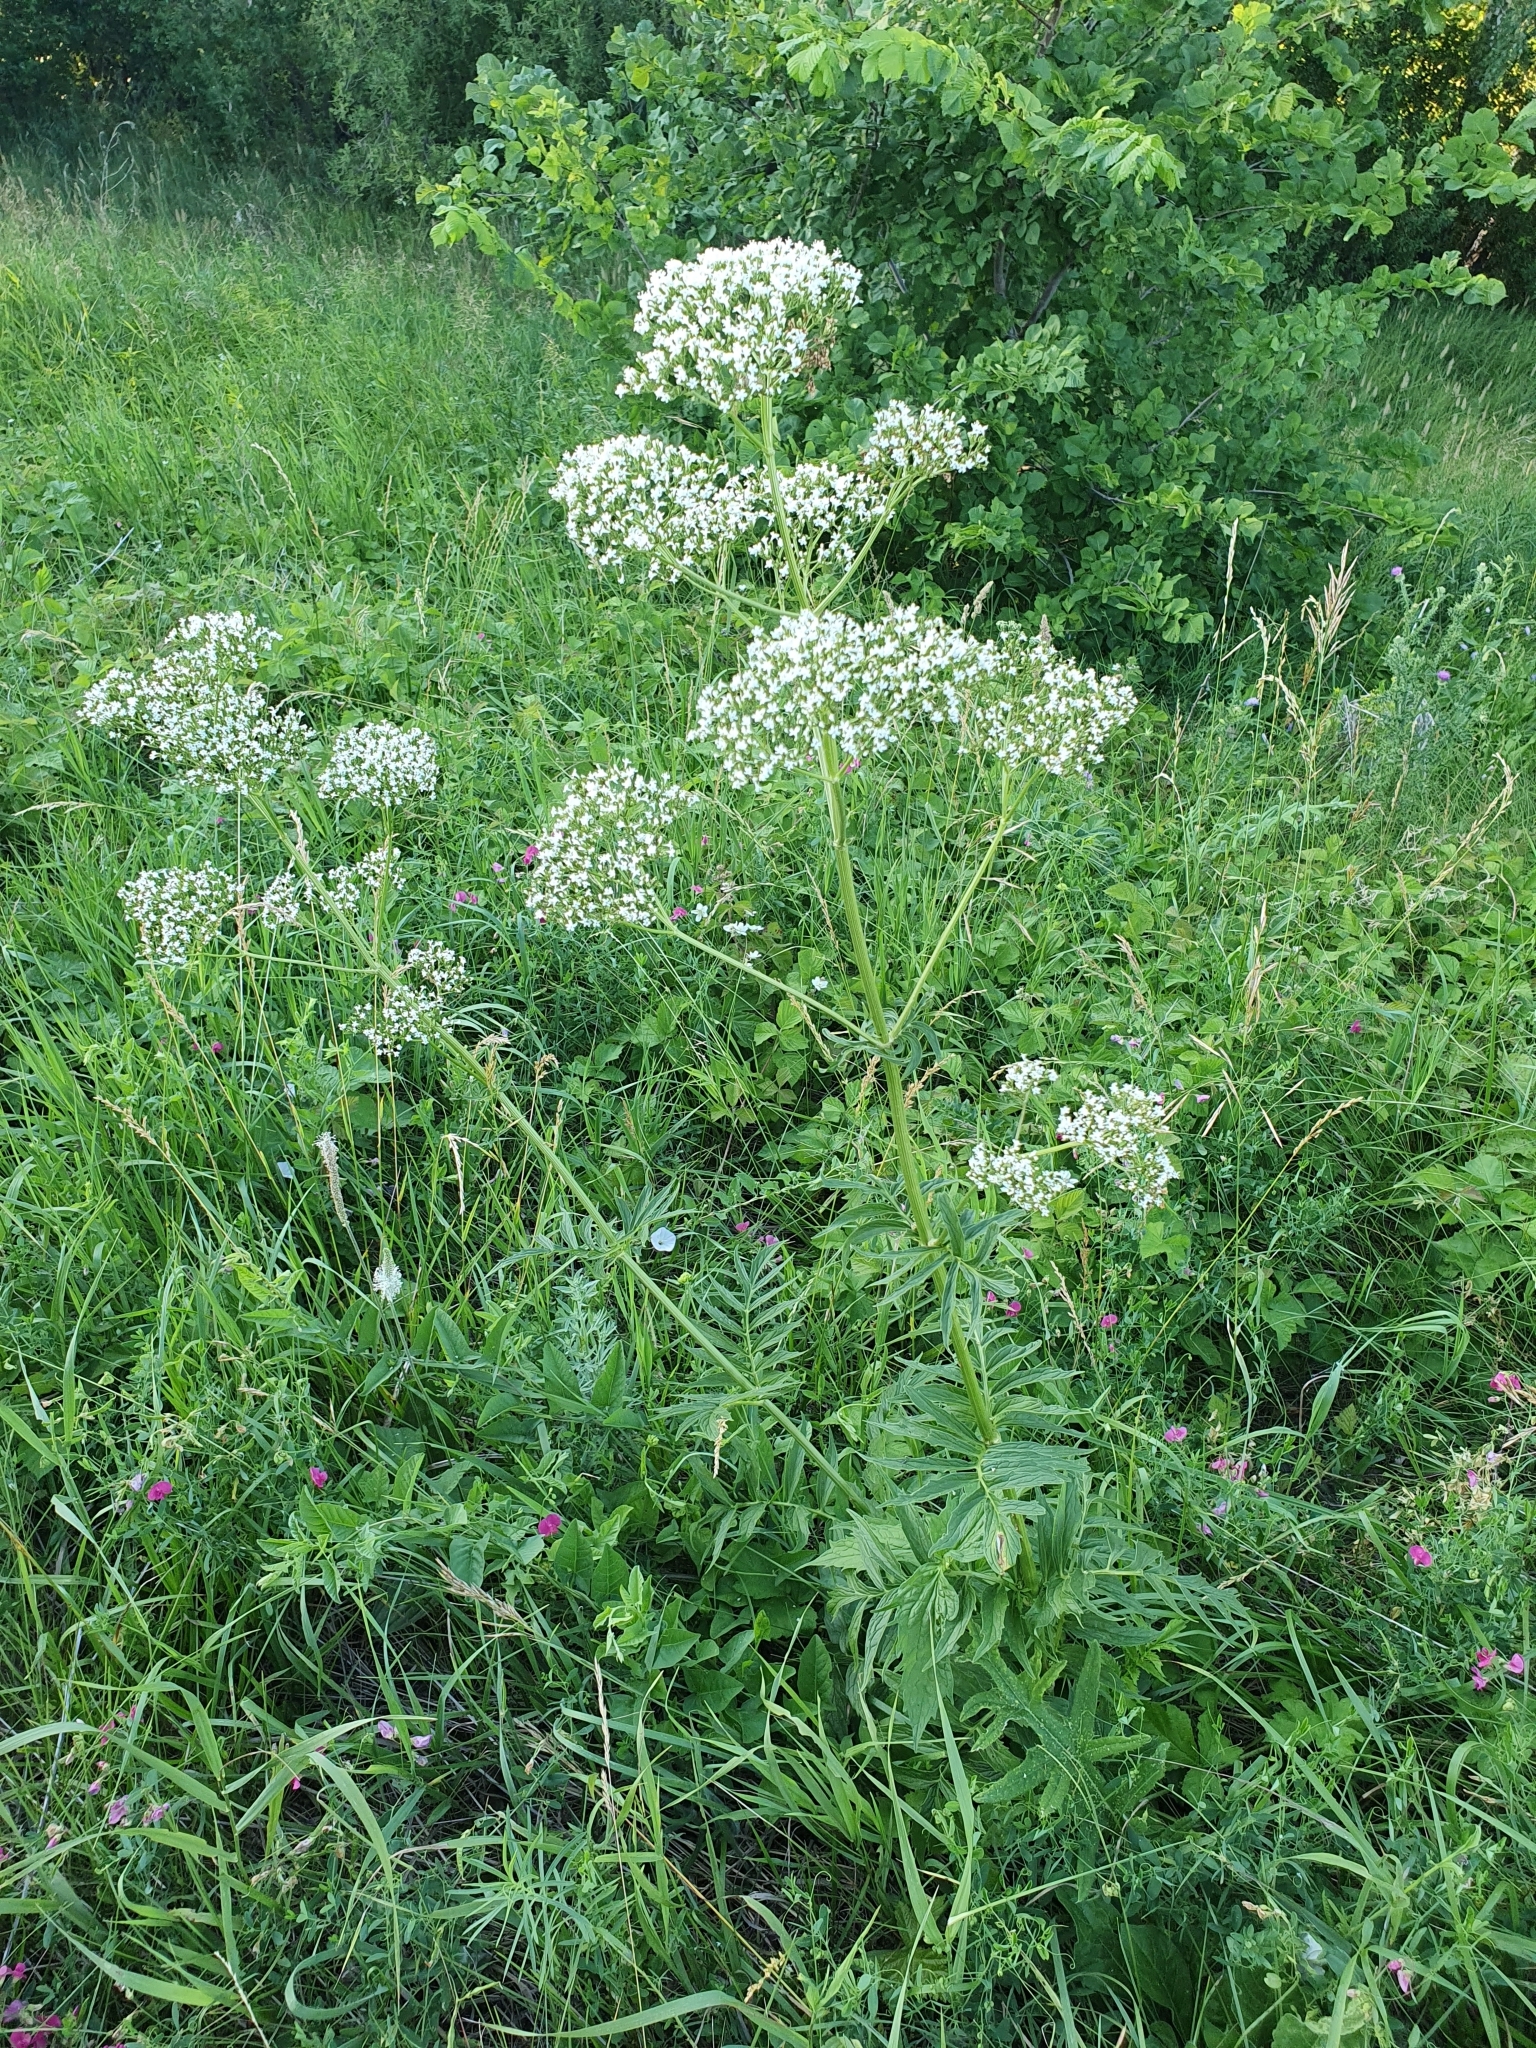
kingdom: Plantae
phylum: Tracheophyta
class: Magnoliopsida
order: Dipsacales
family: Caprifoliaceae
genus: Valeriana
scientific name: Valeriana officinalis
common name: Common valerian
